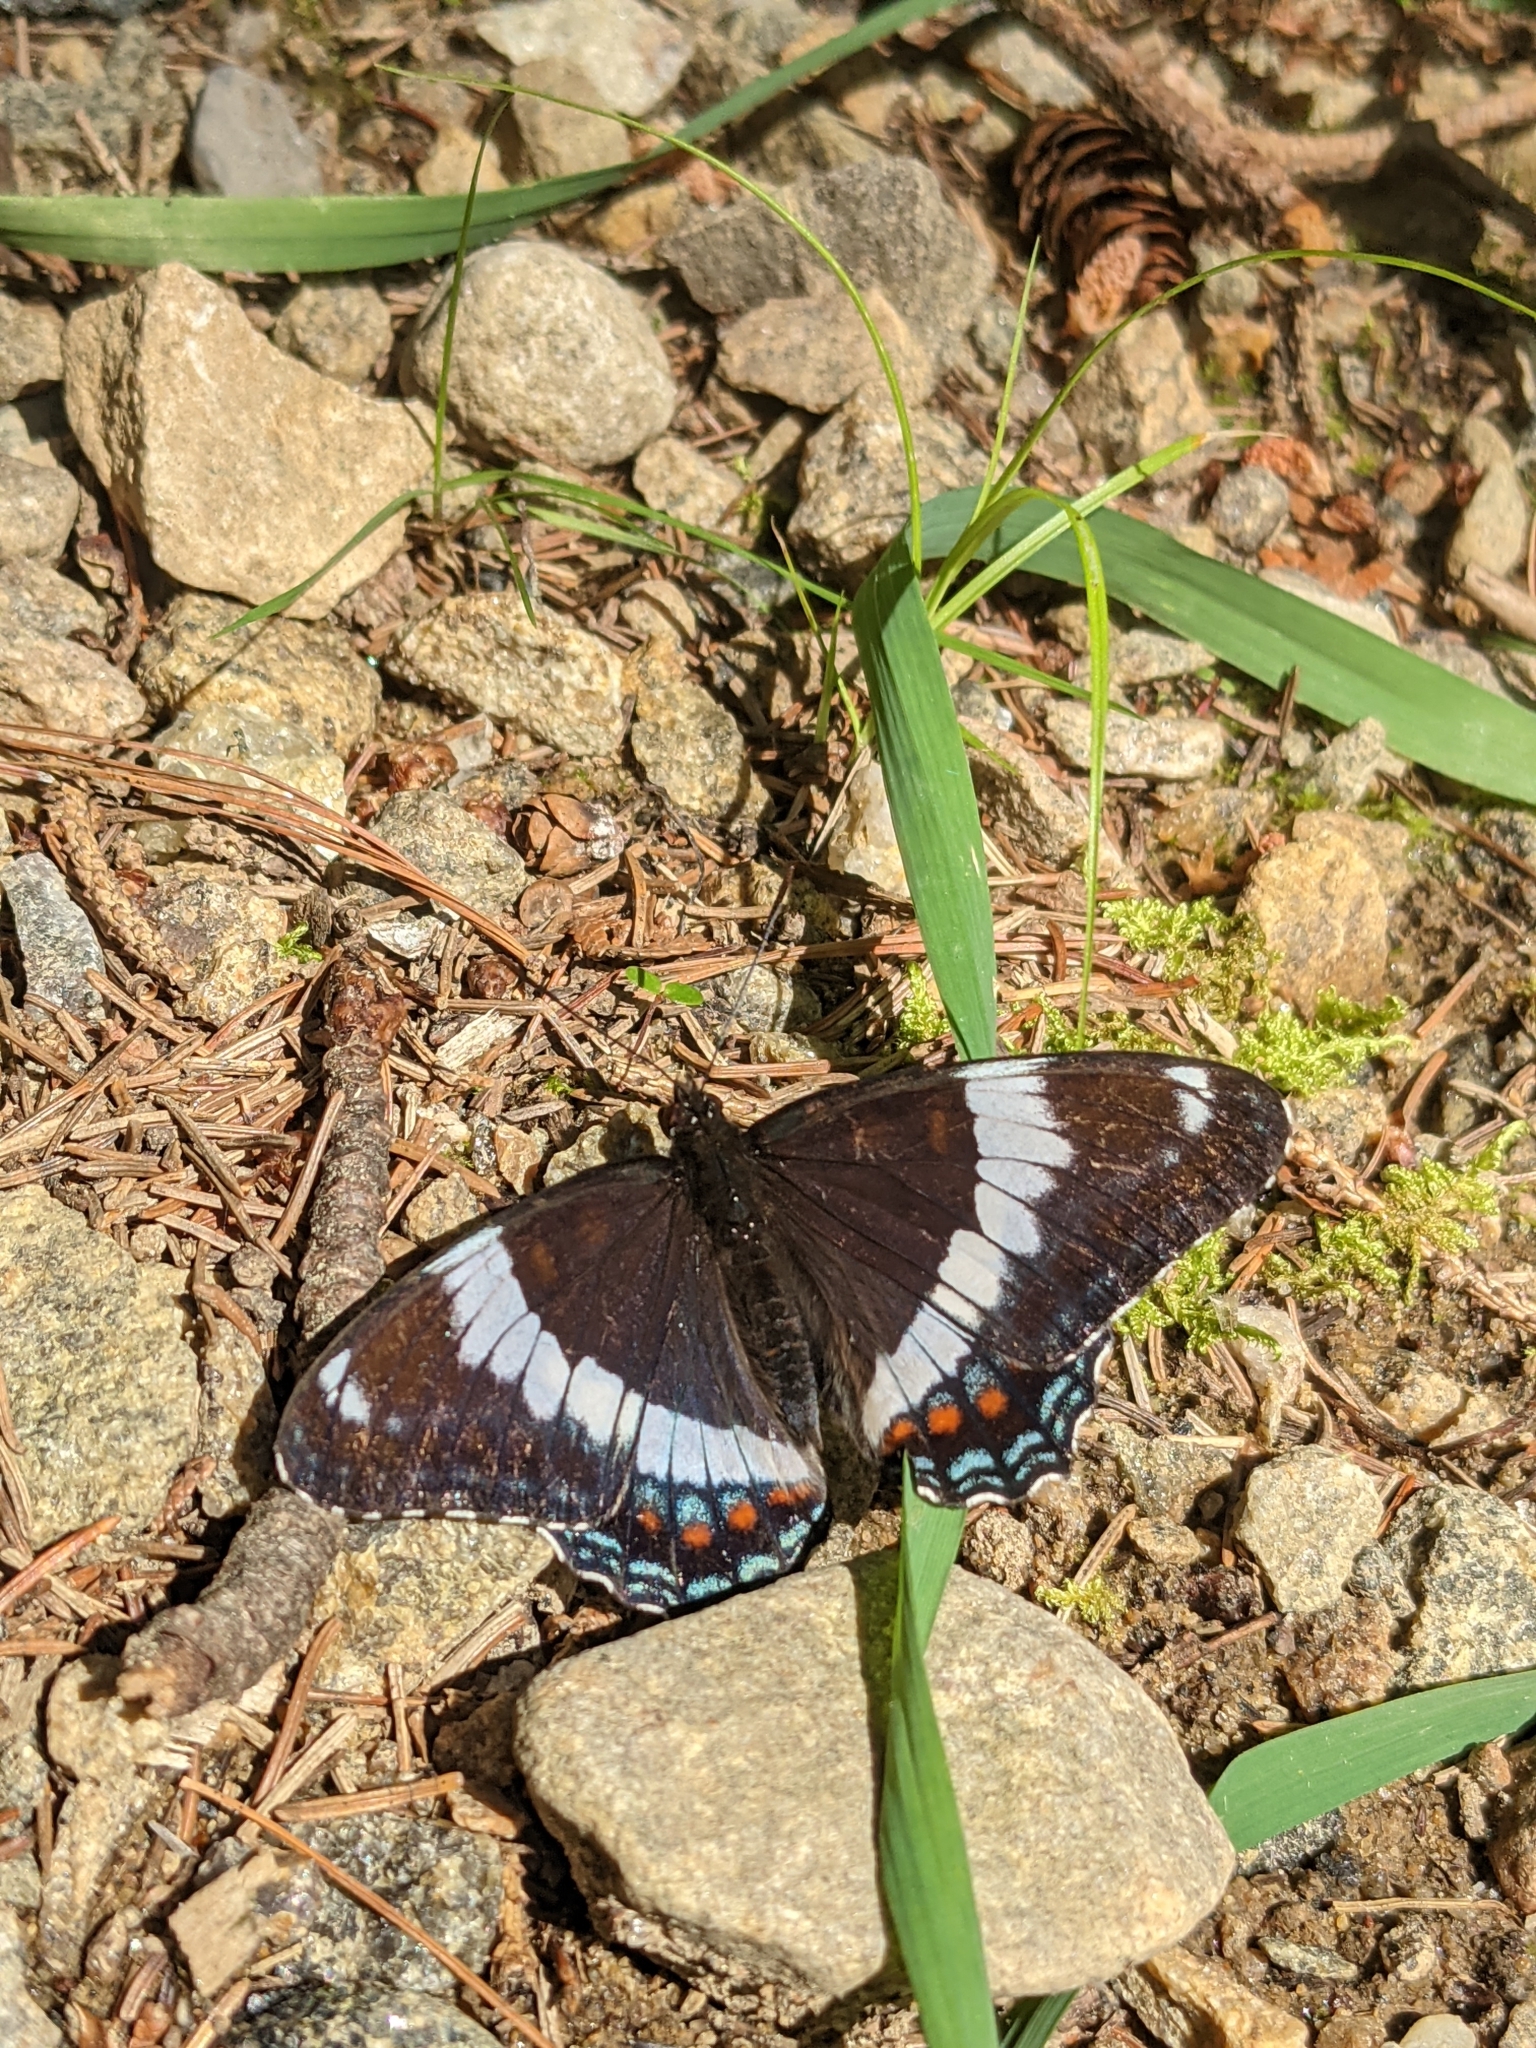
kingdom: Animalia
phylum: Arthropoda
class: Insecta
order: Lepidoptera
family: Nymphalidae
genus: Limenitis
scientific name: Limenitis arthemis
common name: Red-spotted admiral
